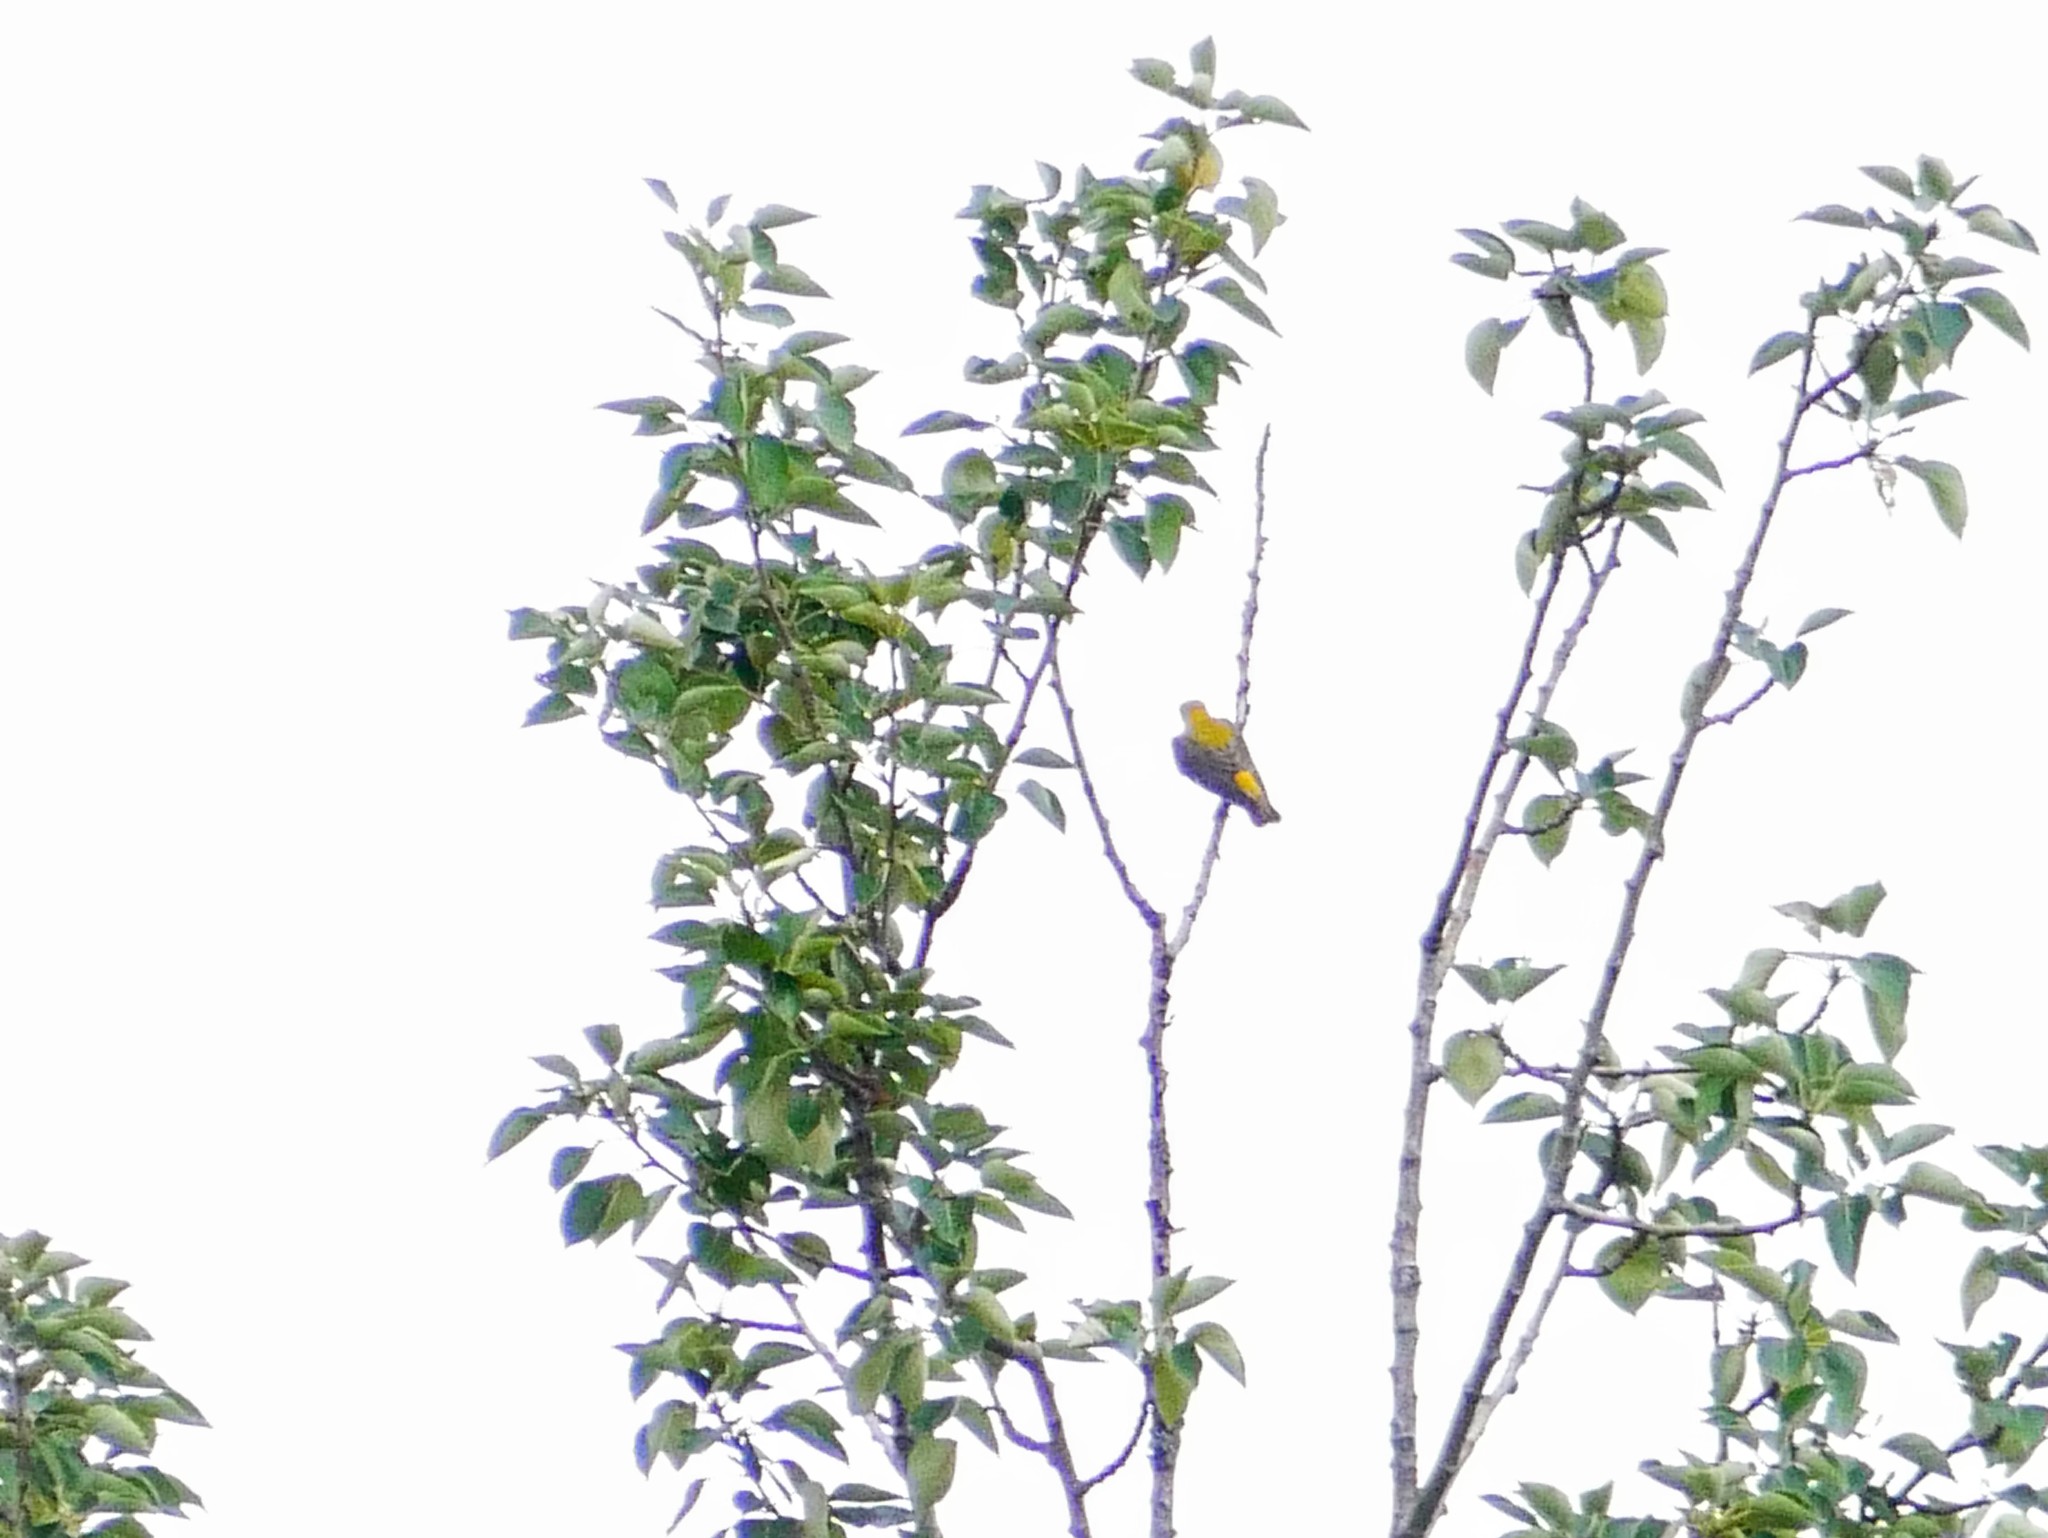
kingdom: Animalia
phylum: Chordata
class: Aves
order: Passeriformes
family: Oriolidae
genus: Oriolus
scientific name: Oriolus oriolus
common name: Eurasian golden oriole
